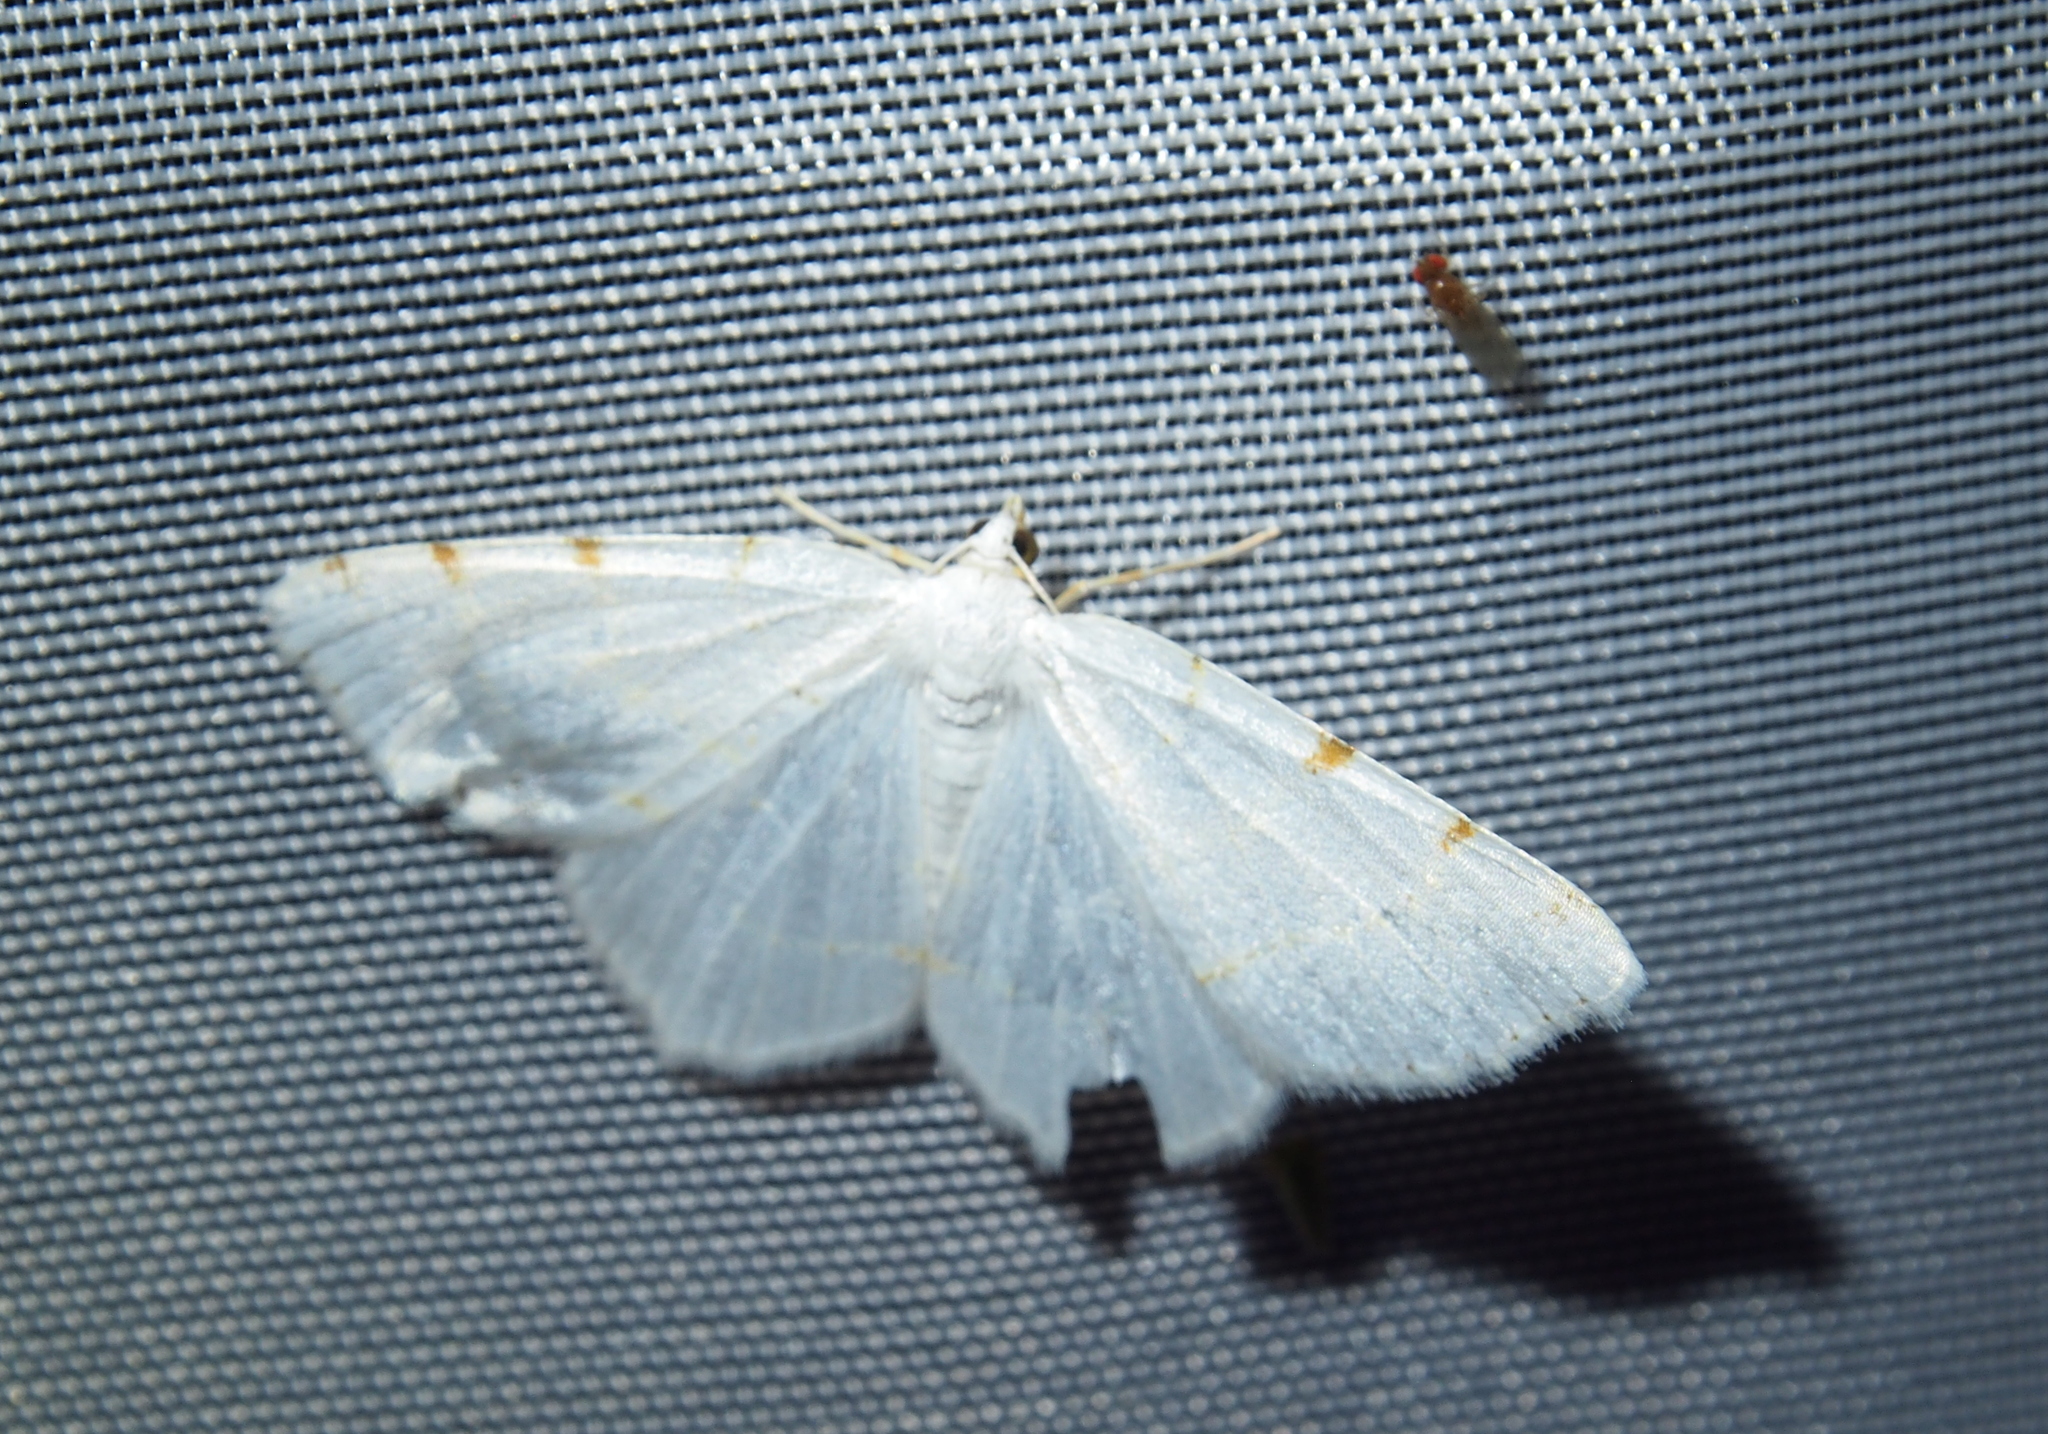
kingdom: Animalia
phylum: Arthropoda
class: Insecta
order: Lepidoptera
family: Geometridae
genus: Macaria
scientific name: Macaria pustularia
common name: Lesser maple spanworm moth
